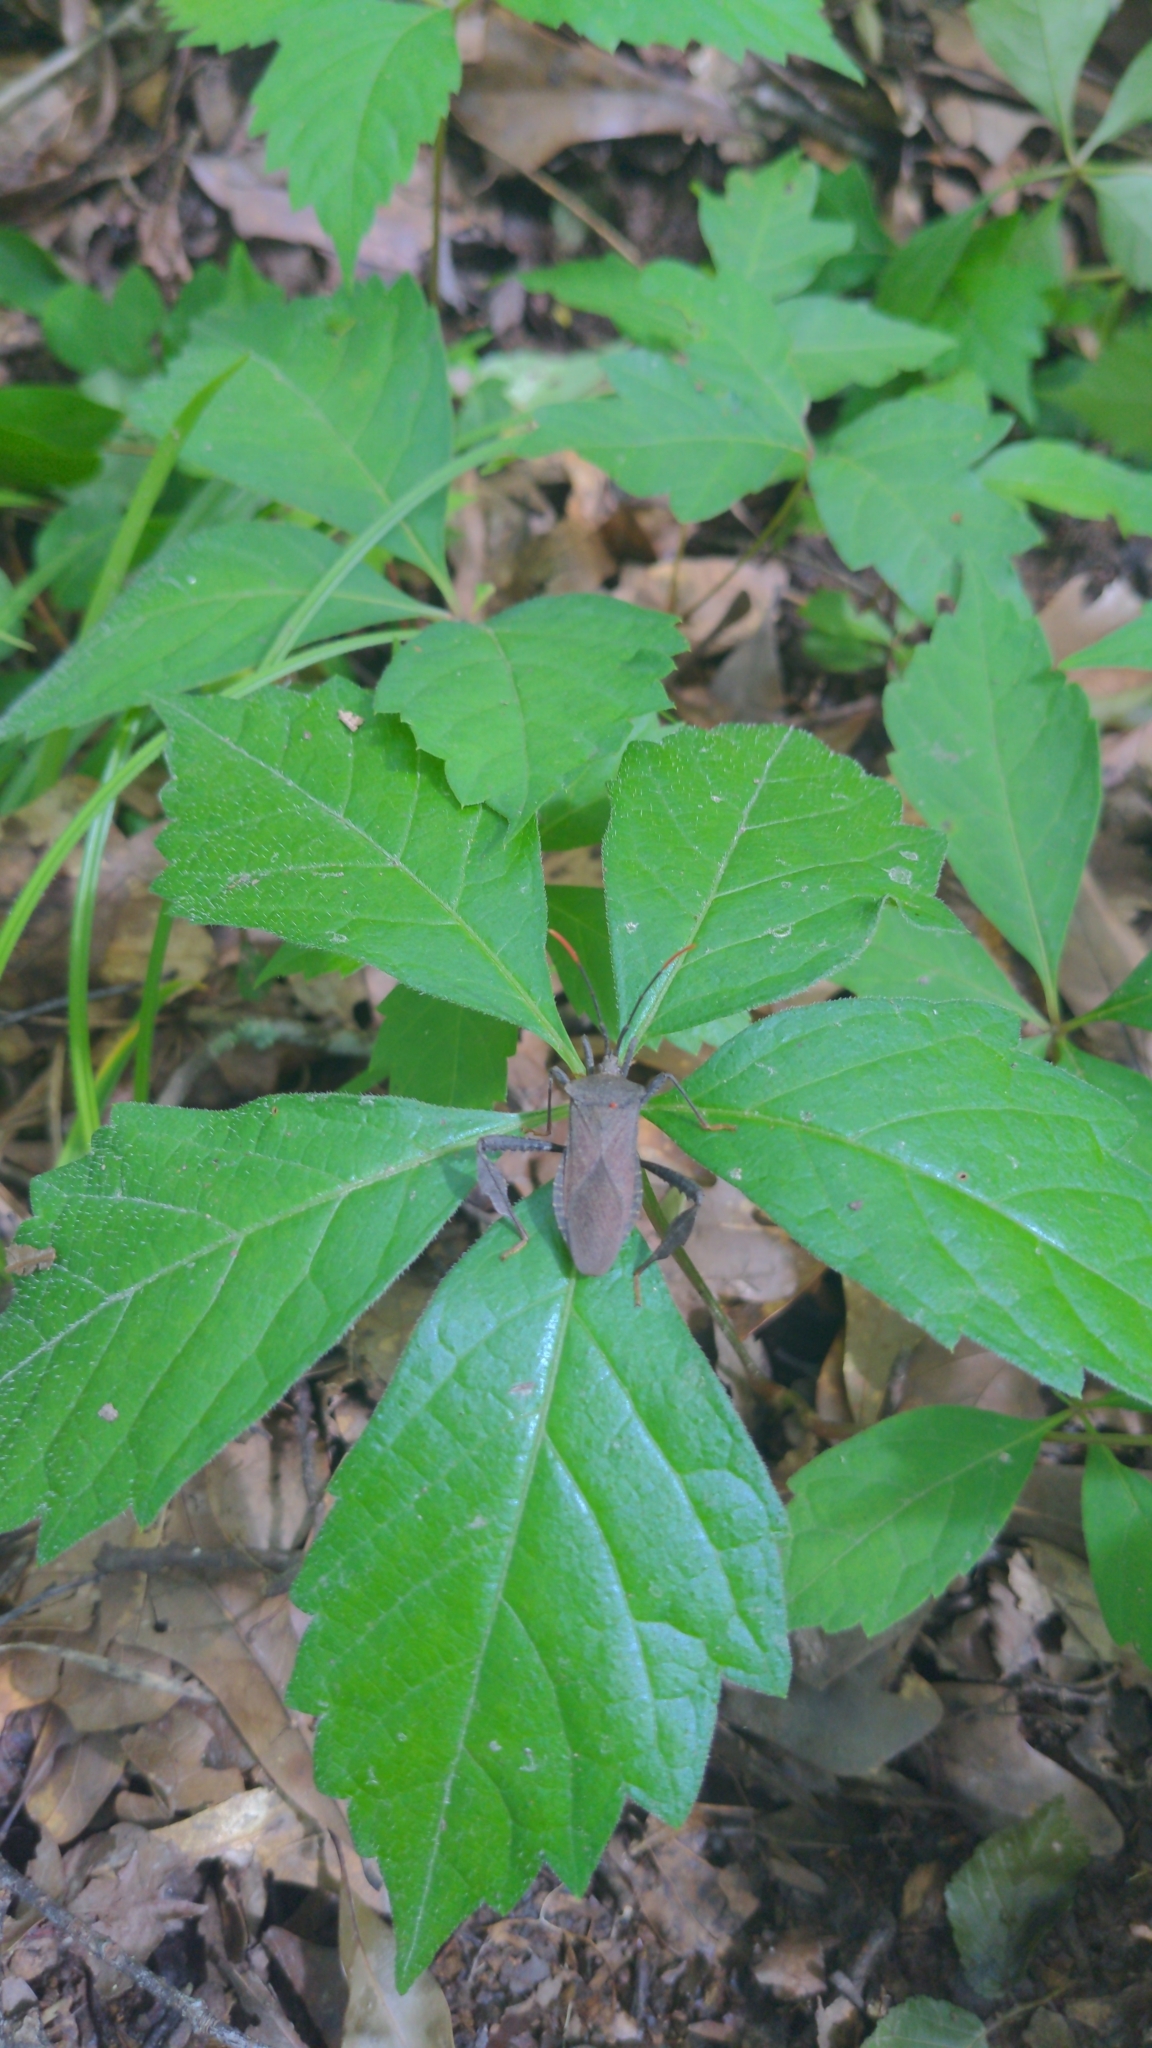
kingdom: Animalia
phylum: Arthropoda
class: Insecta
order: Hemiptera
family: Coreidae
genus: Acanthocephala
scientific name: Acanthocephala terminalis
